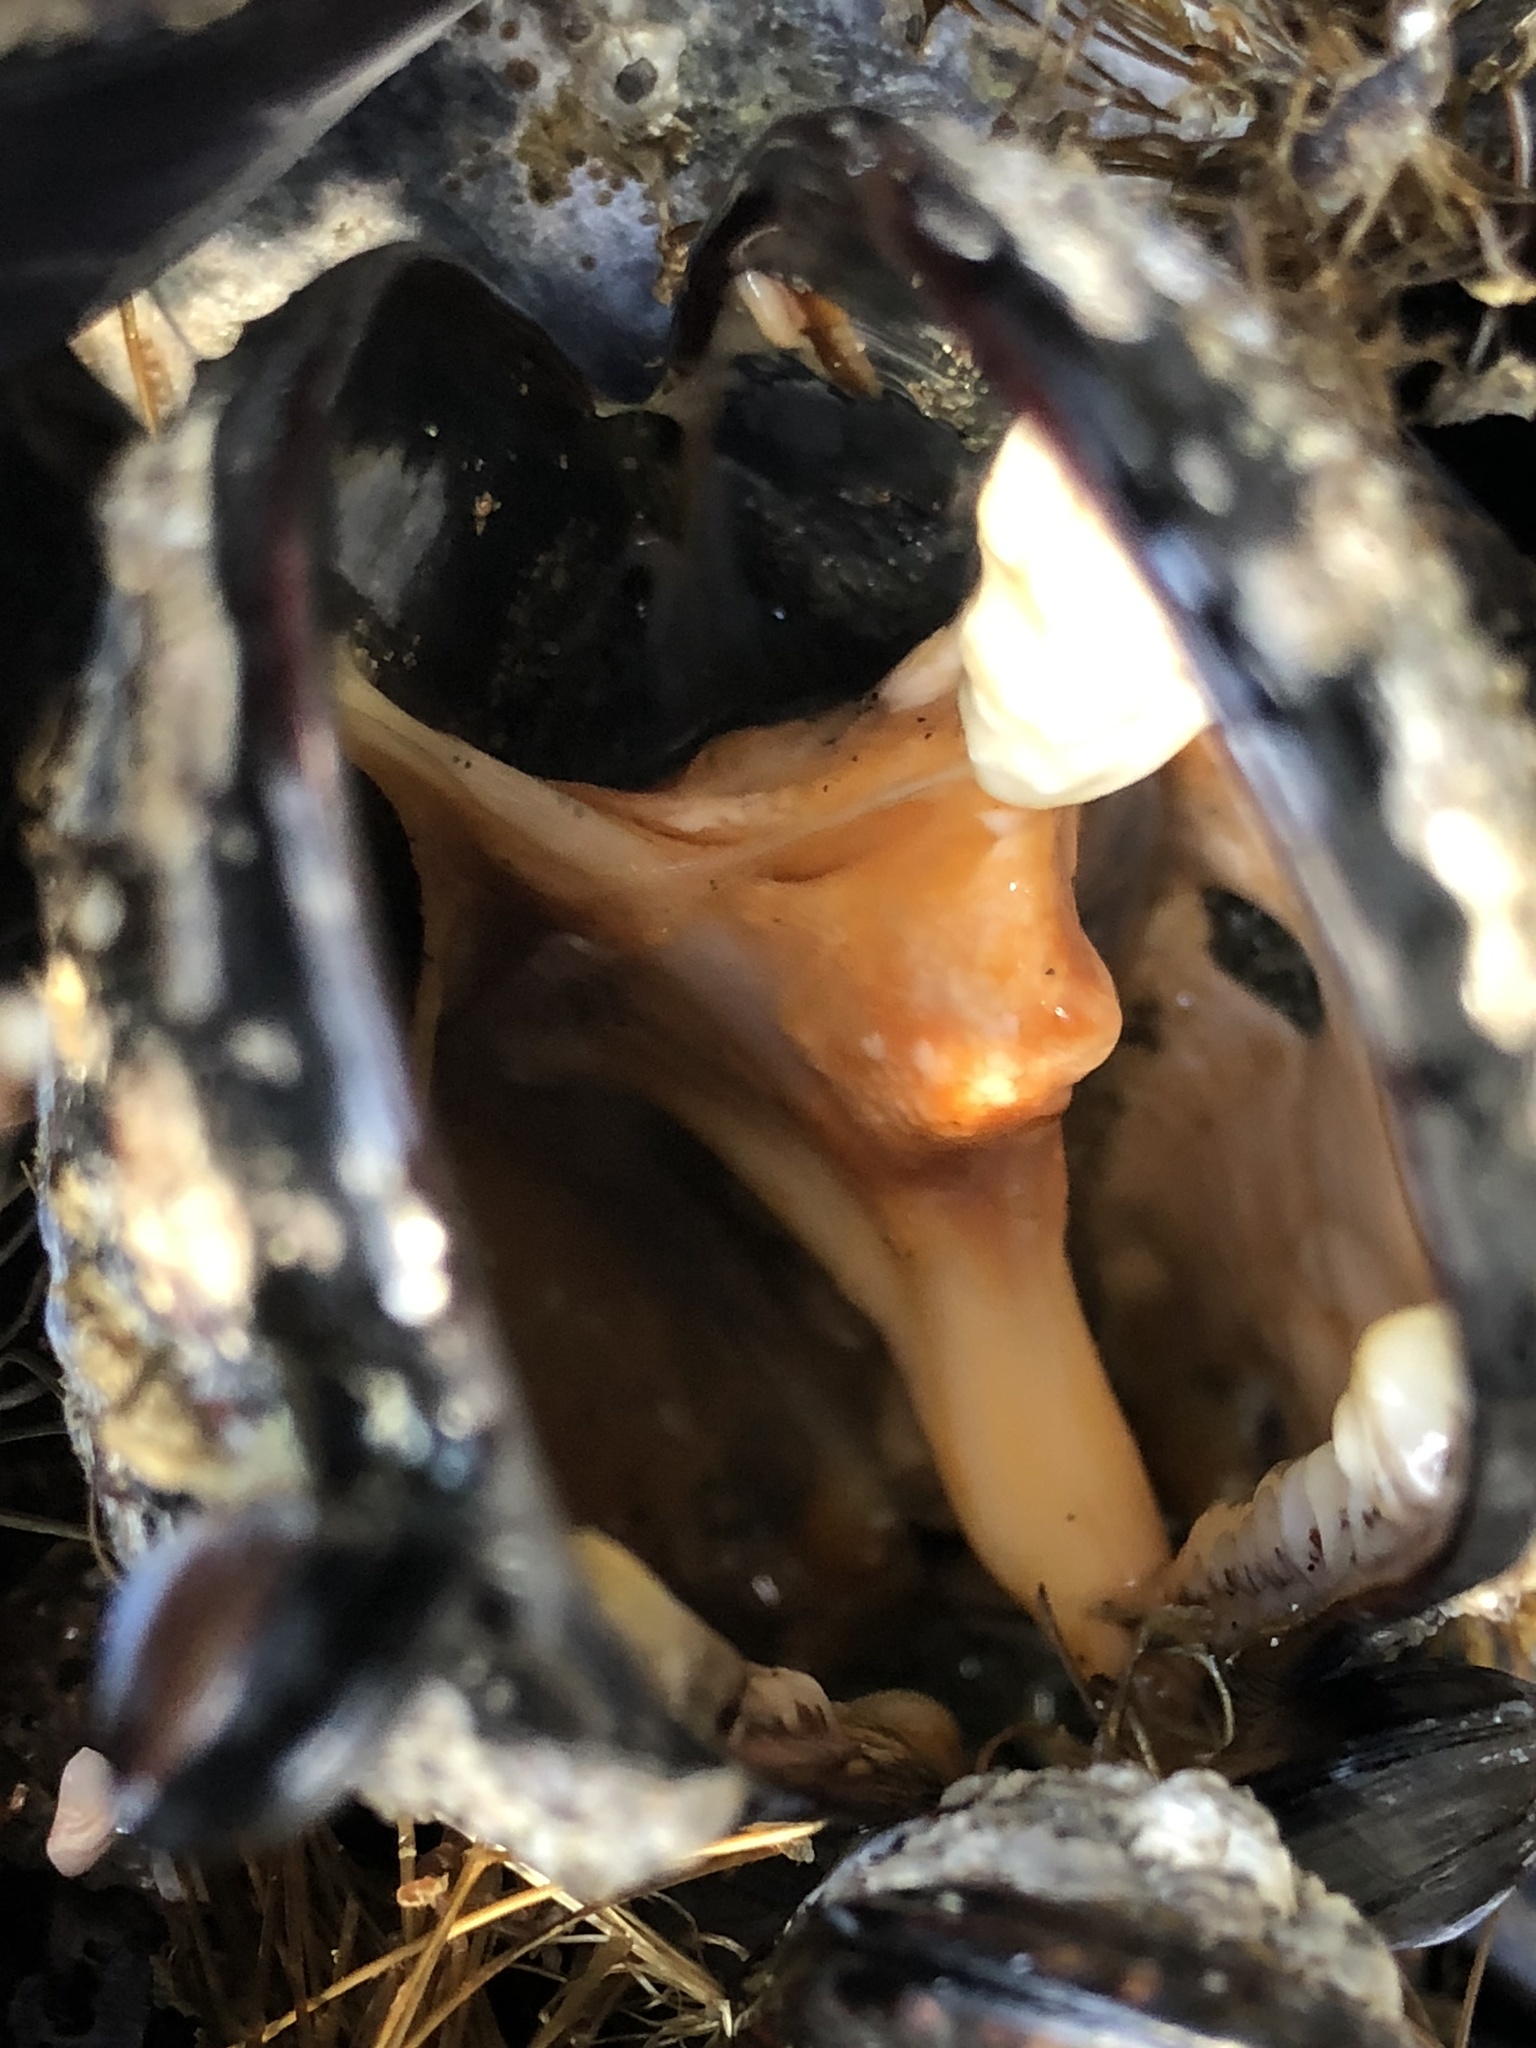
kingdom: Animalia
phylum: Mollusca
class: Bivalvia
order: Mytilida
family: Mytilidae
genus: Mytilus
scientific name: Mytilus californianus
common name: California mussel
